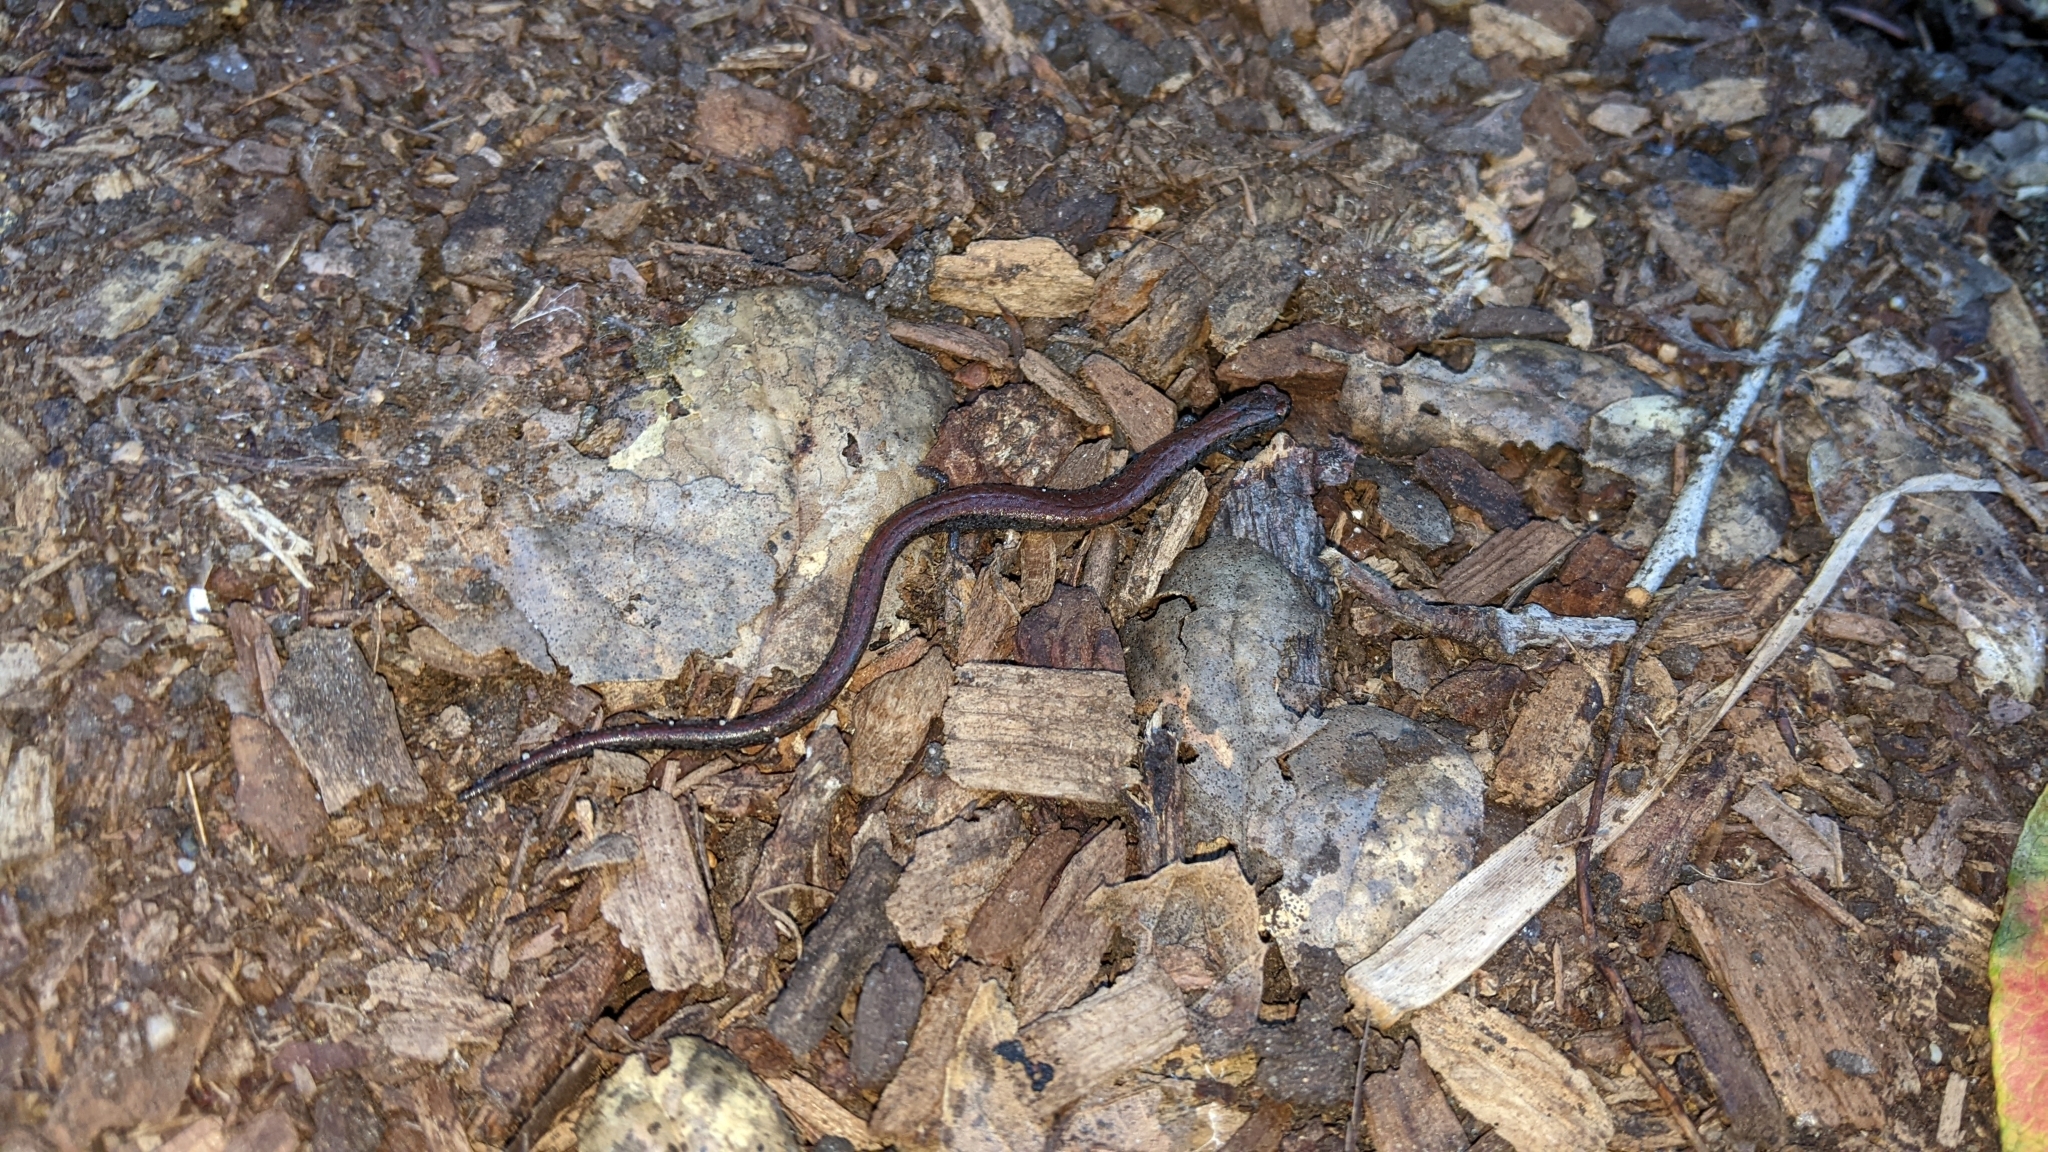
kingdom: Animalia
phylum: Chordata
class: Amphibia
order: Caudata
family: Plethodontidae
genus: Batrachoseps
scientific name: Batrachoseps attenuatus
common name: California slender salamander
